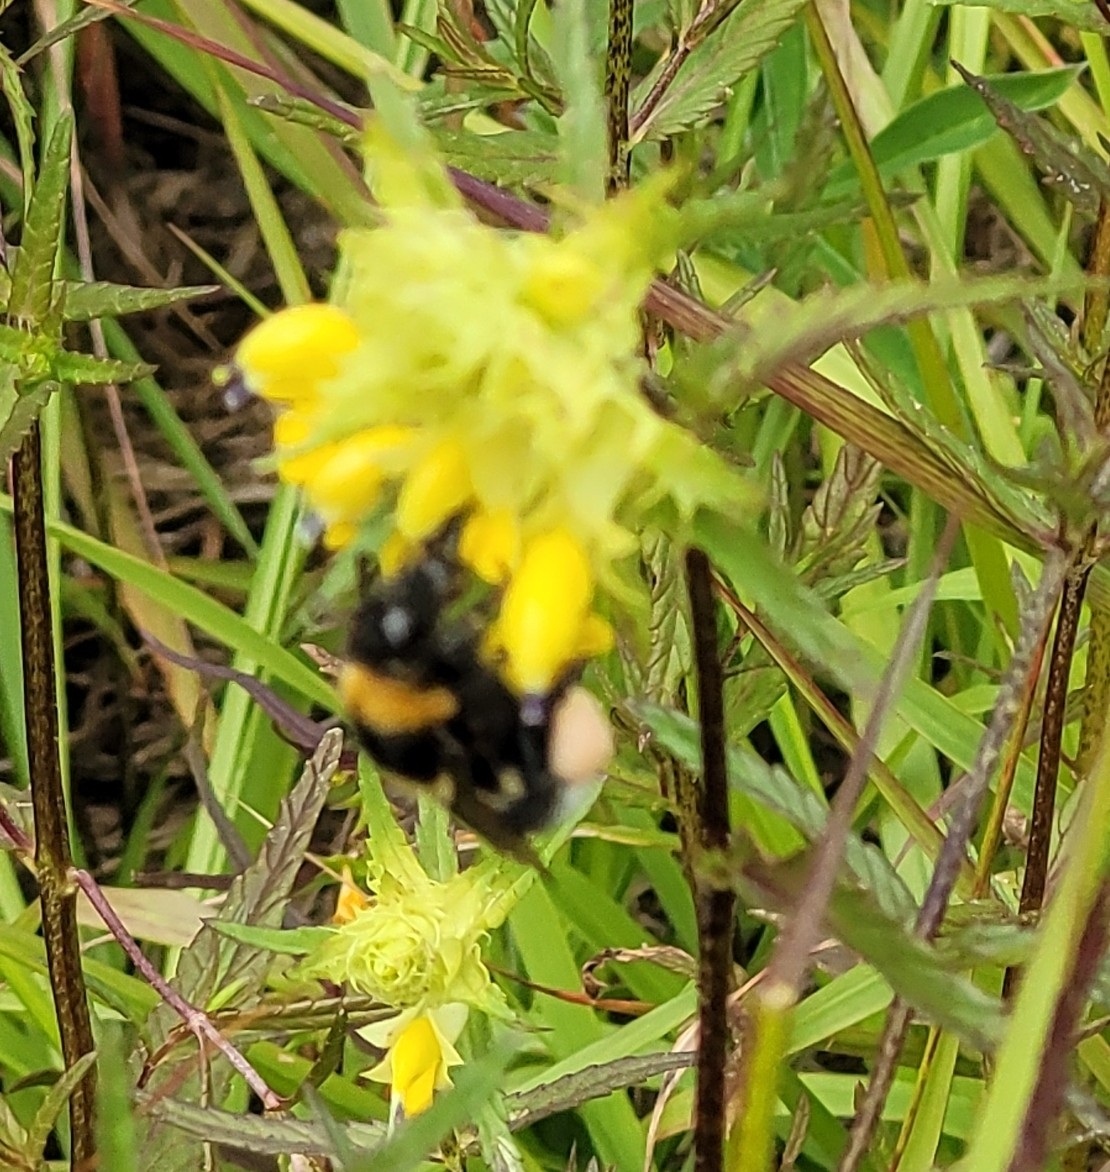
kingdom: Animalia
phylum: Arthropoda
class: Insecta
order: Hymenoptera
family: Apidae
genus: Bombus
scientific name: Bombus hortorum
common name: Garden bumblebee
